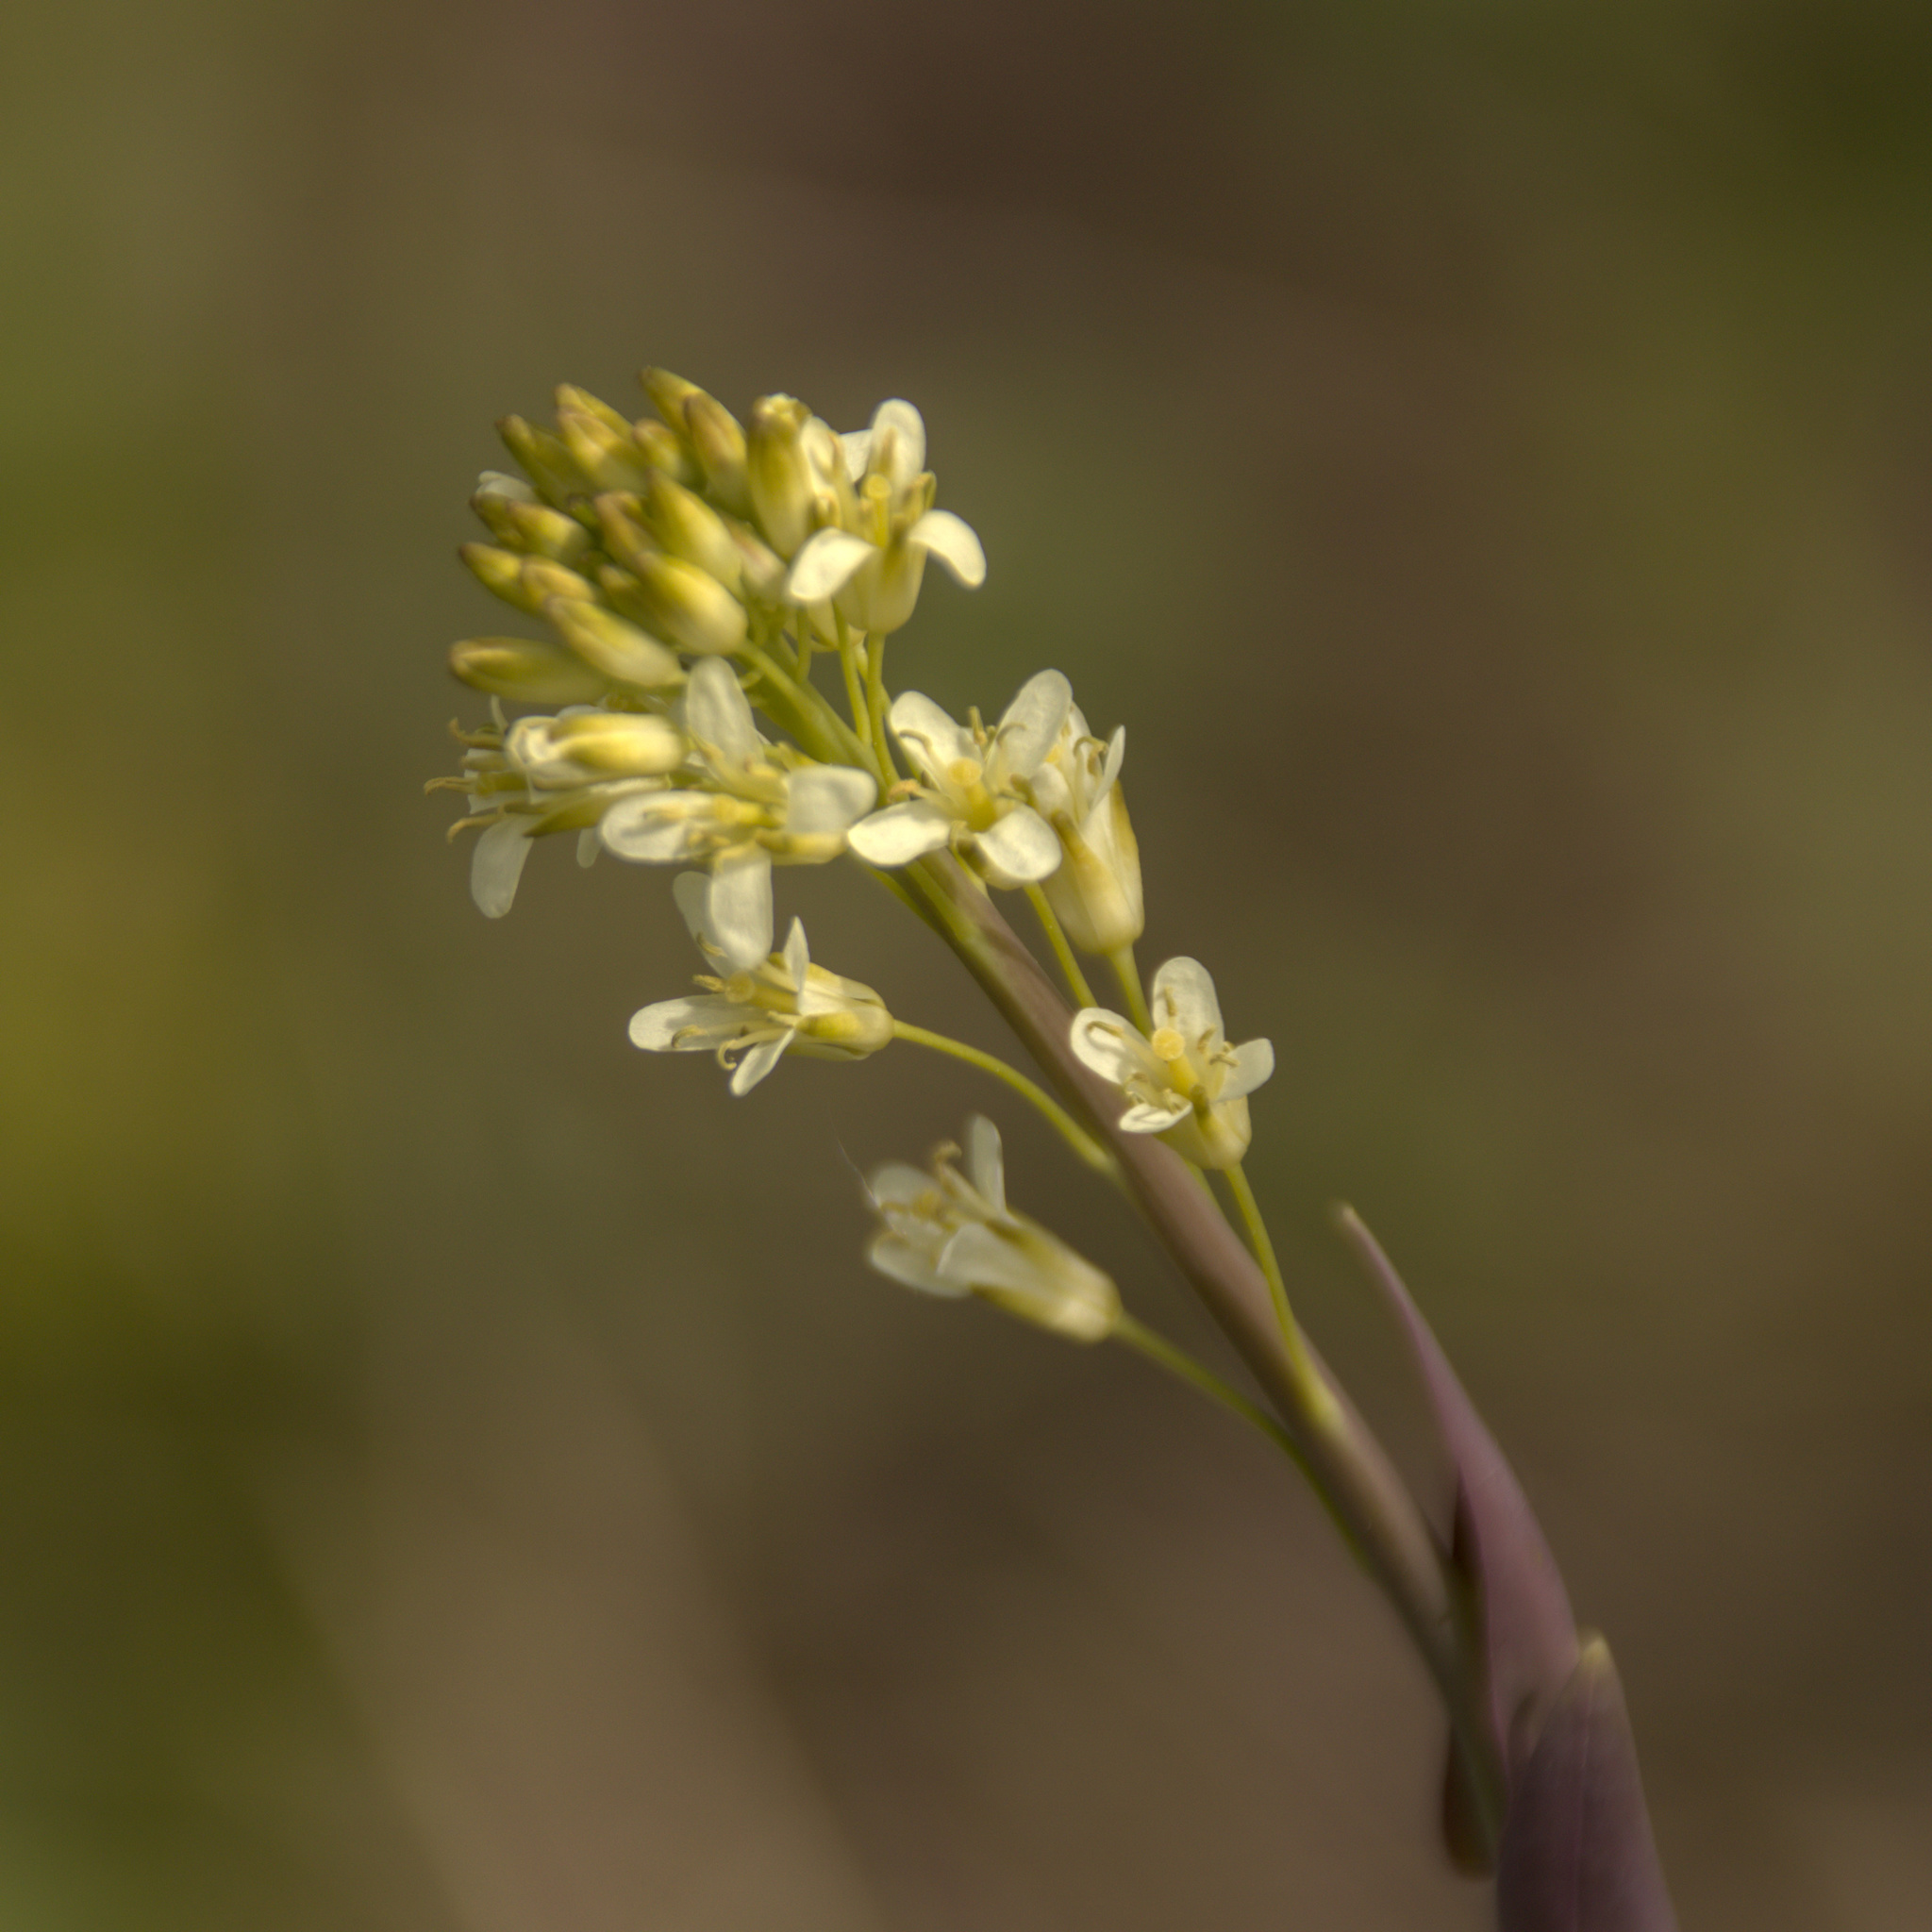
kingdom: Plantae
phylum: Tracheophyta
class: Magnoliopsida
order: Brassicales
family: Brassicaceae
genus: Turritis
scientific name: Turritis glabra
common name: Tower rockcress
